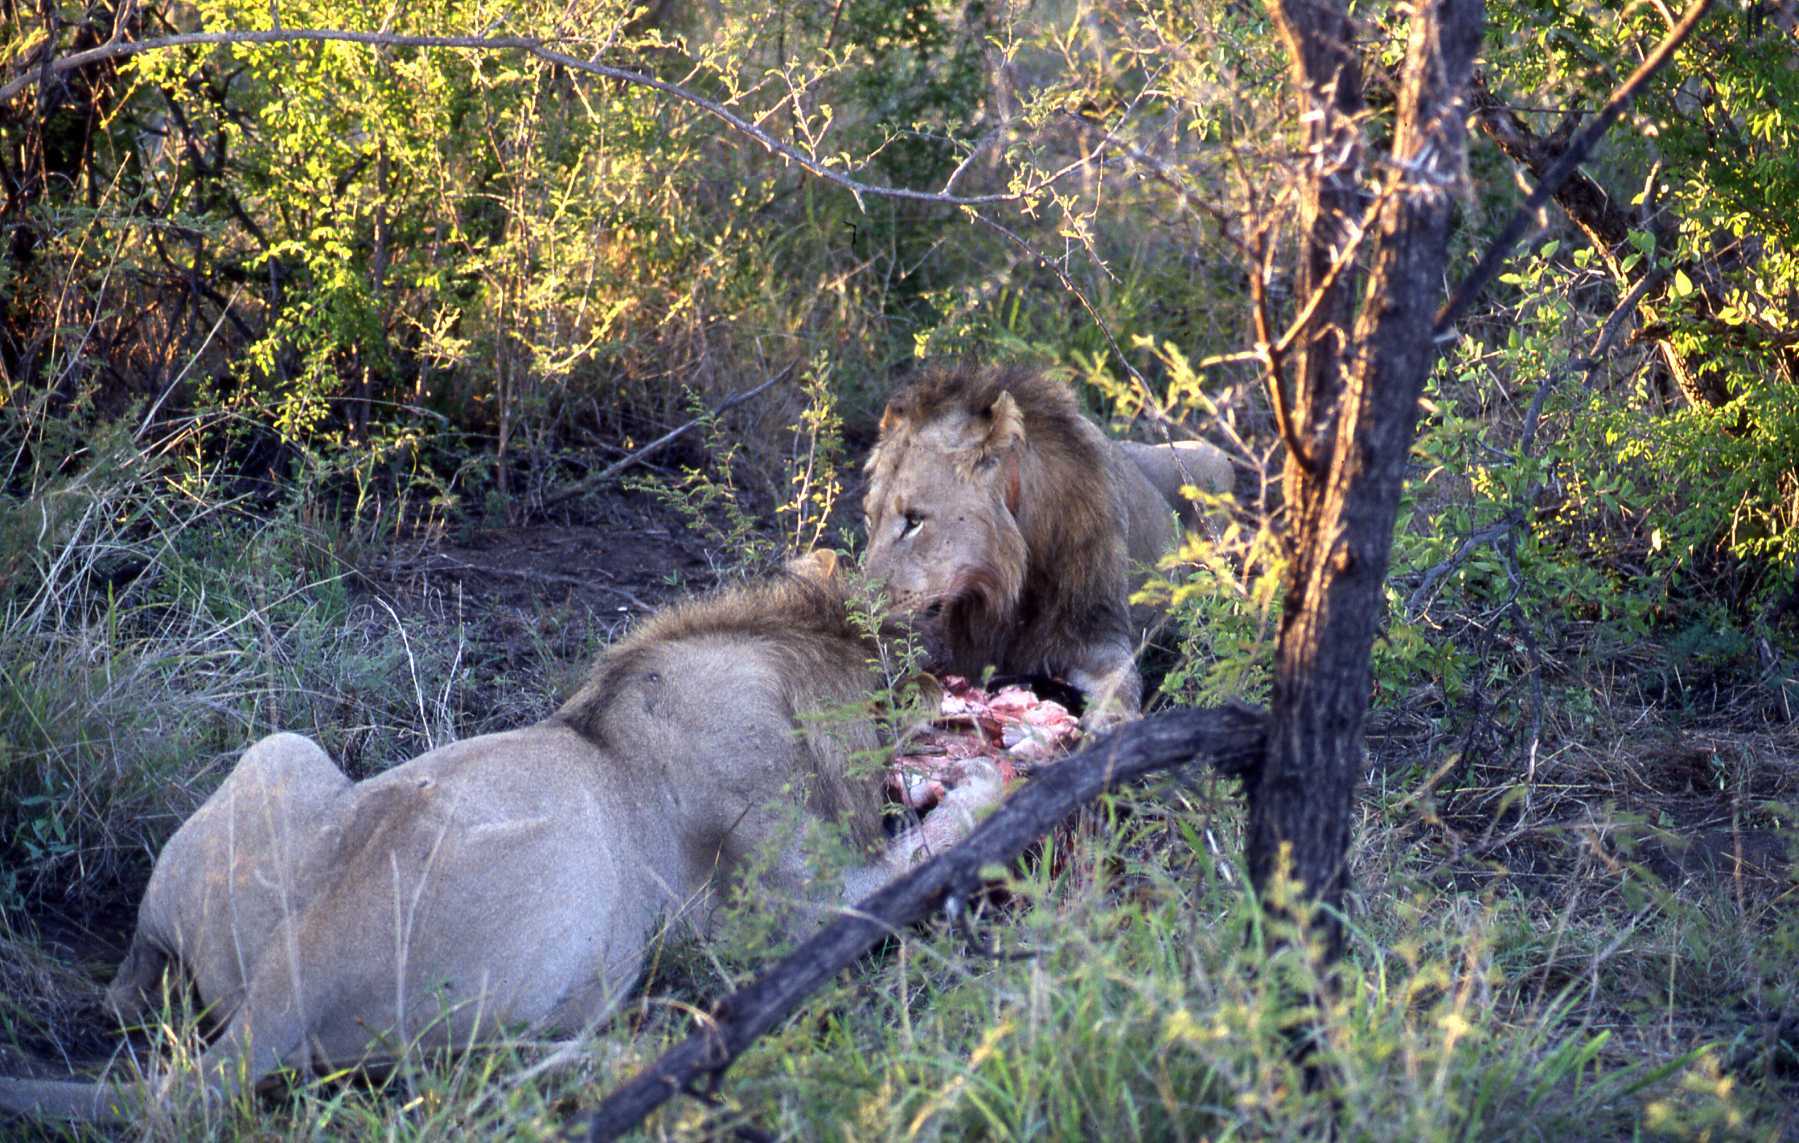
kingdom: Animalia
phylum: Chordata
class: Mammalia
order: Carnivora
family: Felidae
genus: Panthera
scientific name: Panthera leo
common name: Lion
